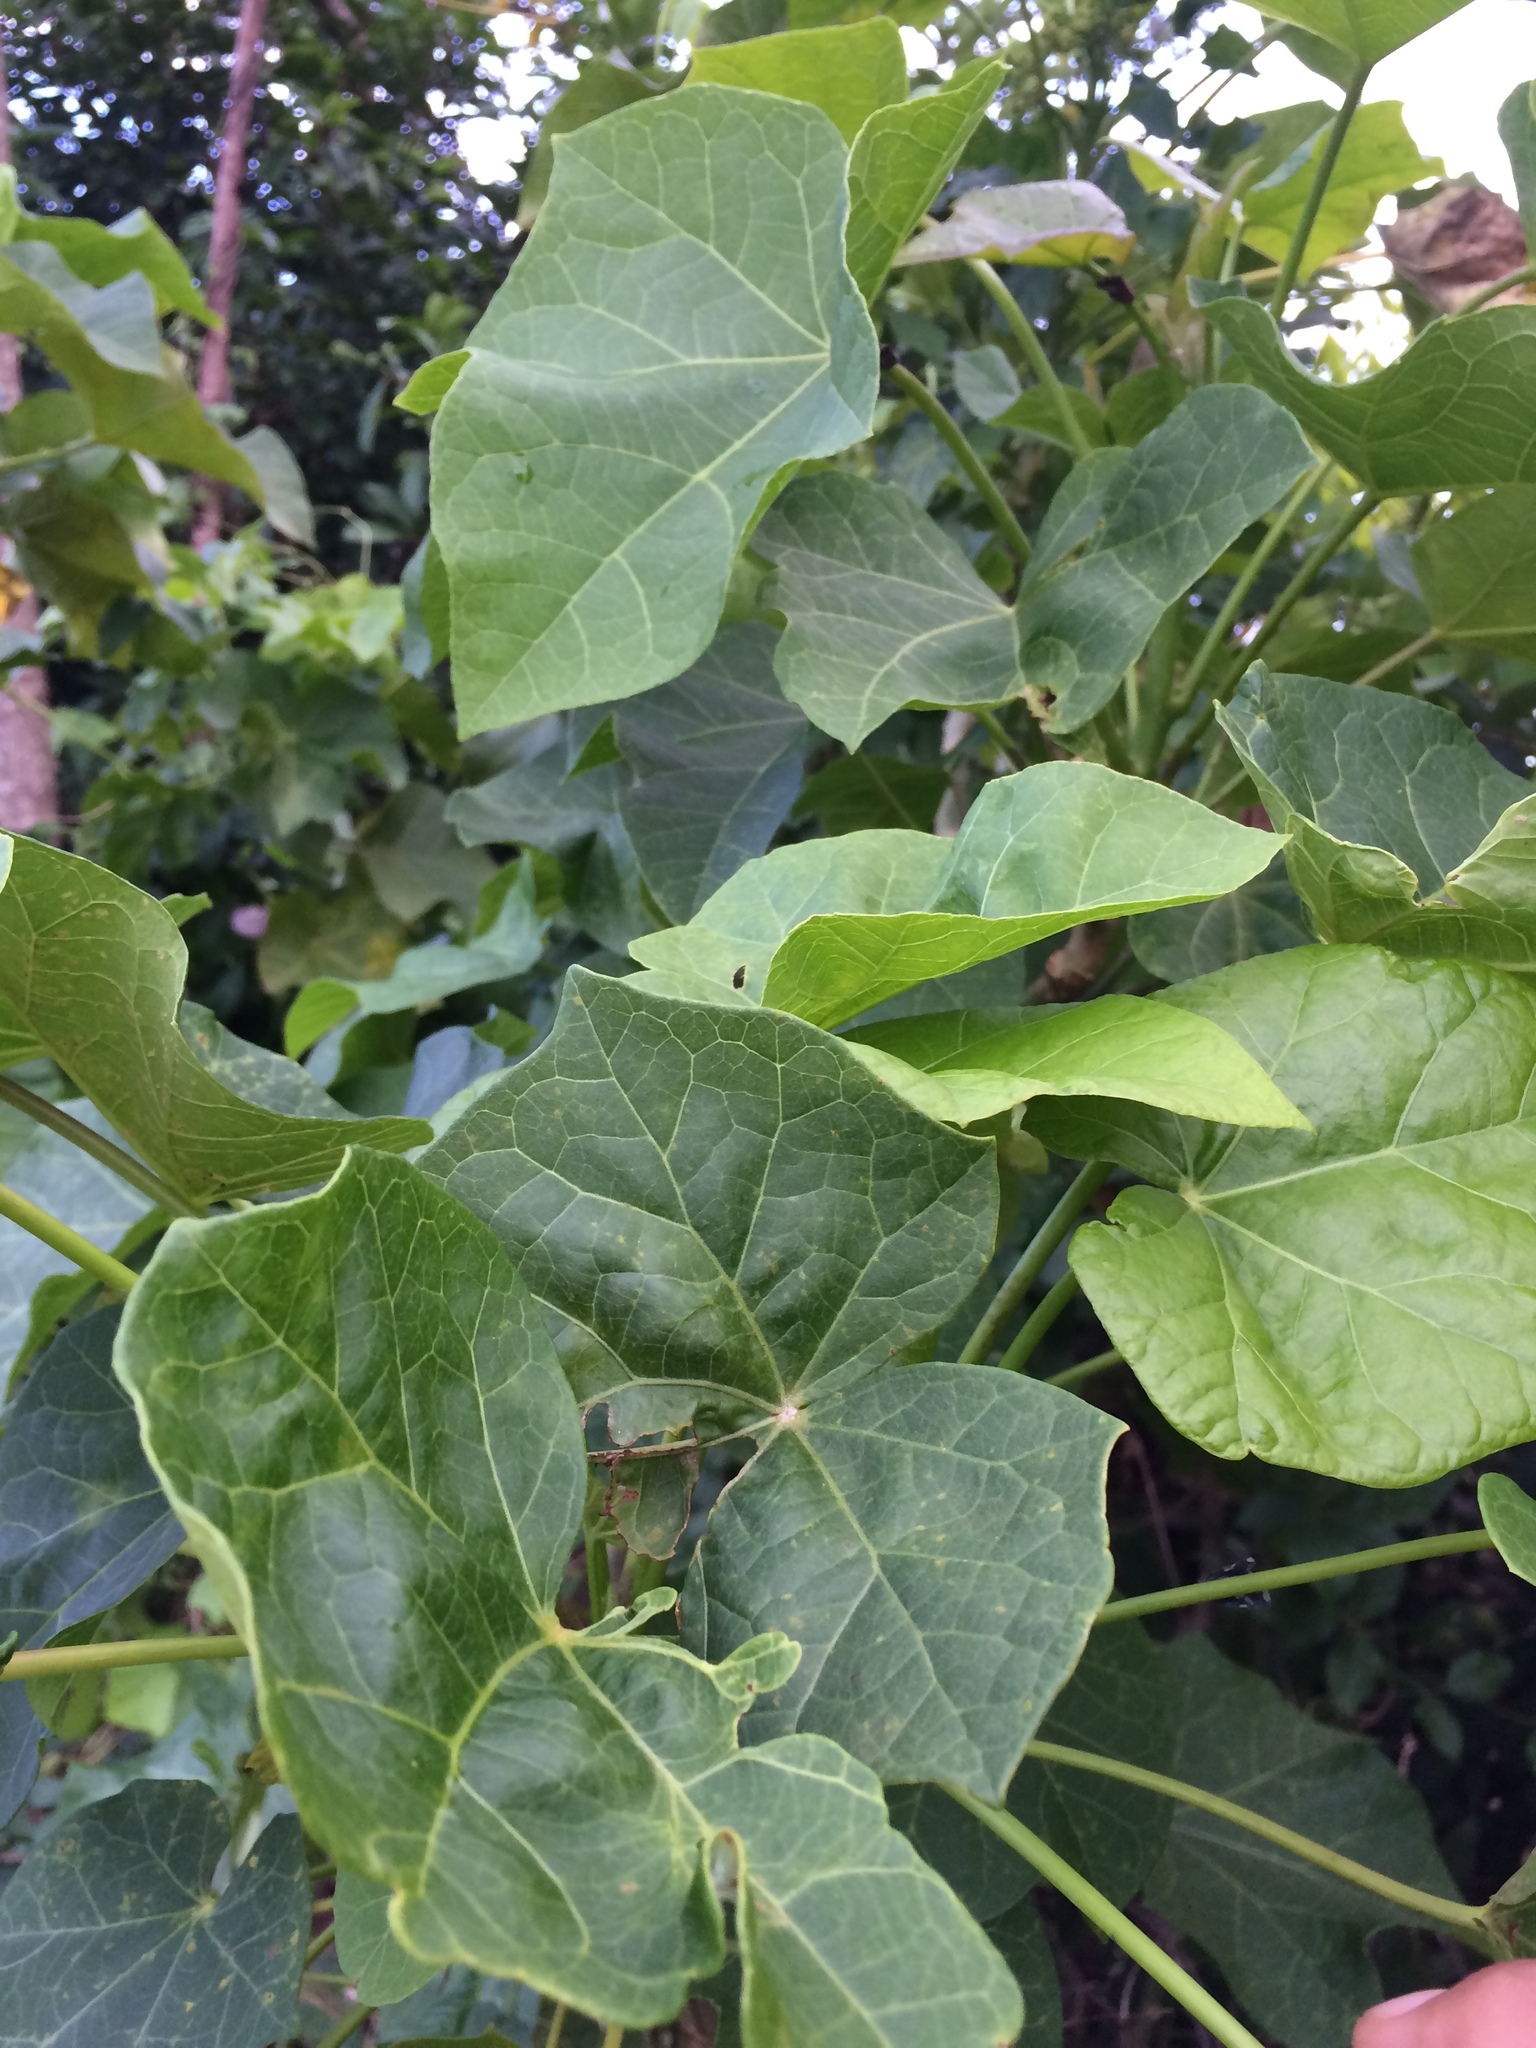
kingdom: Plantae
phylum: Tracheophyta
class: Magnoliopsida
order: Malpighiales
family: Euphorbiaceae
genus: Jatropha
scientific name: Jatropha curcas
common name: Barbados nut
